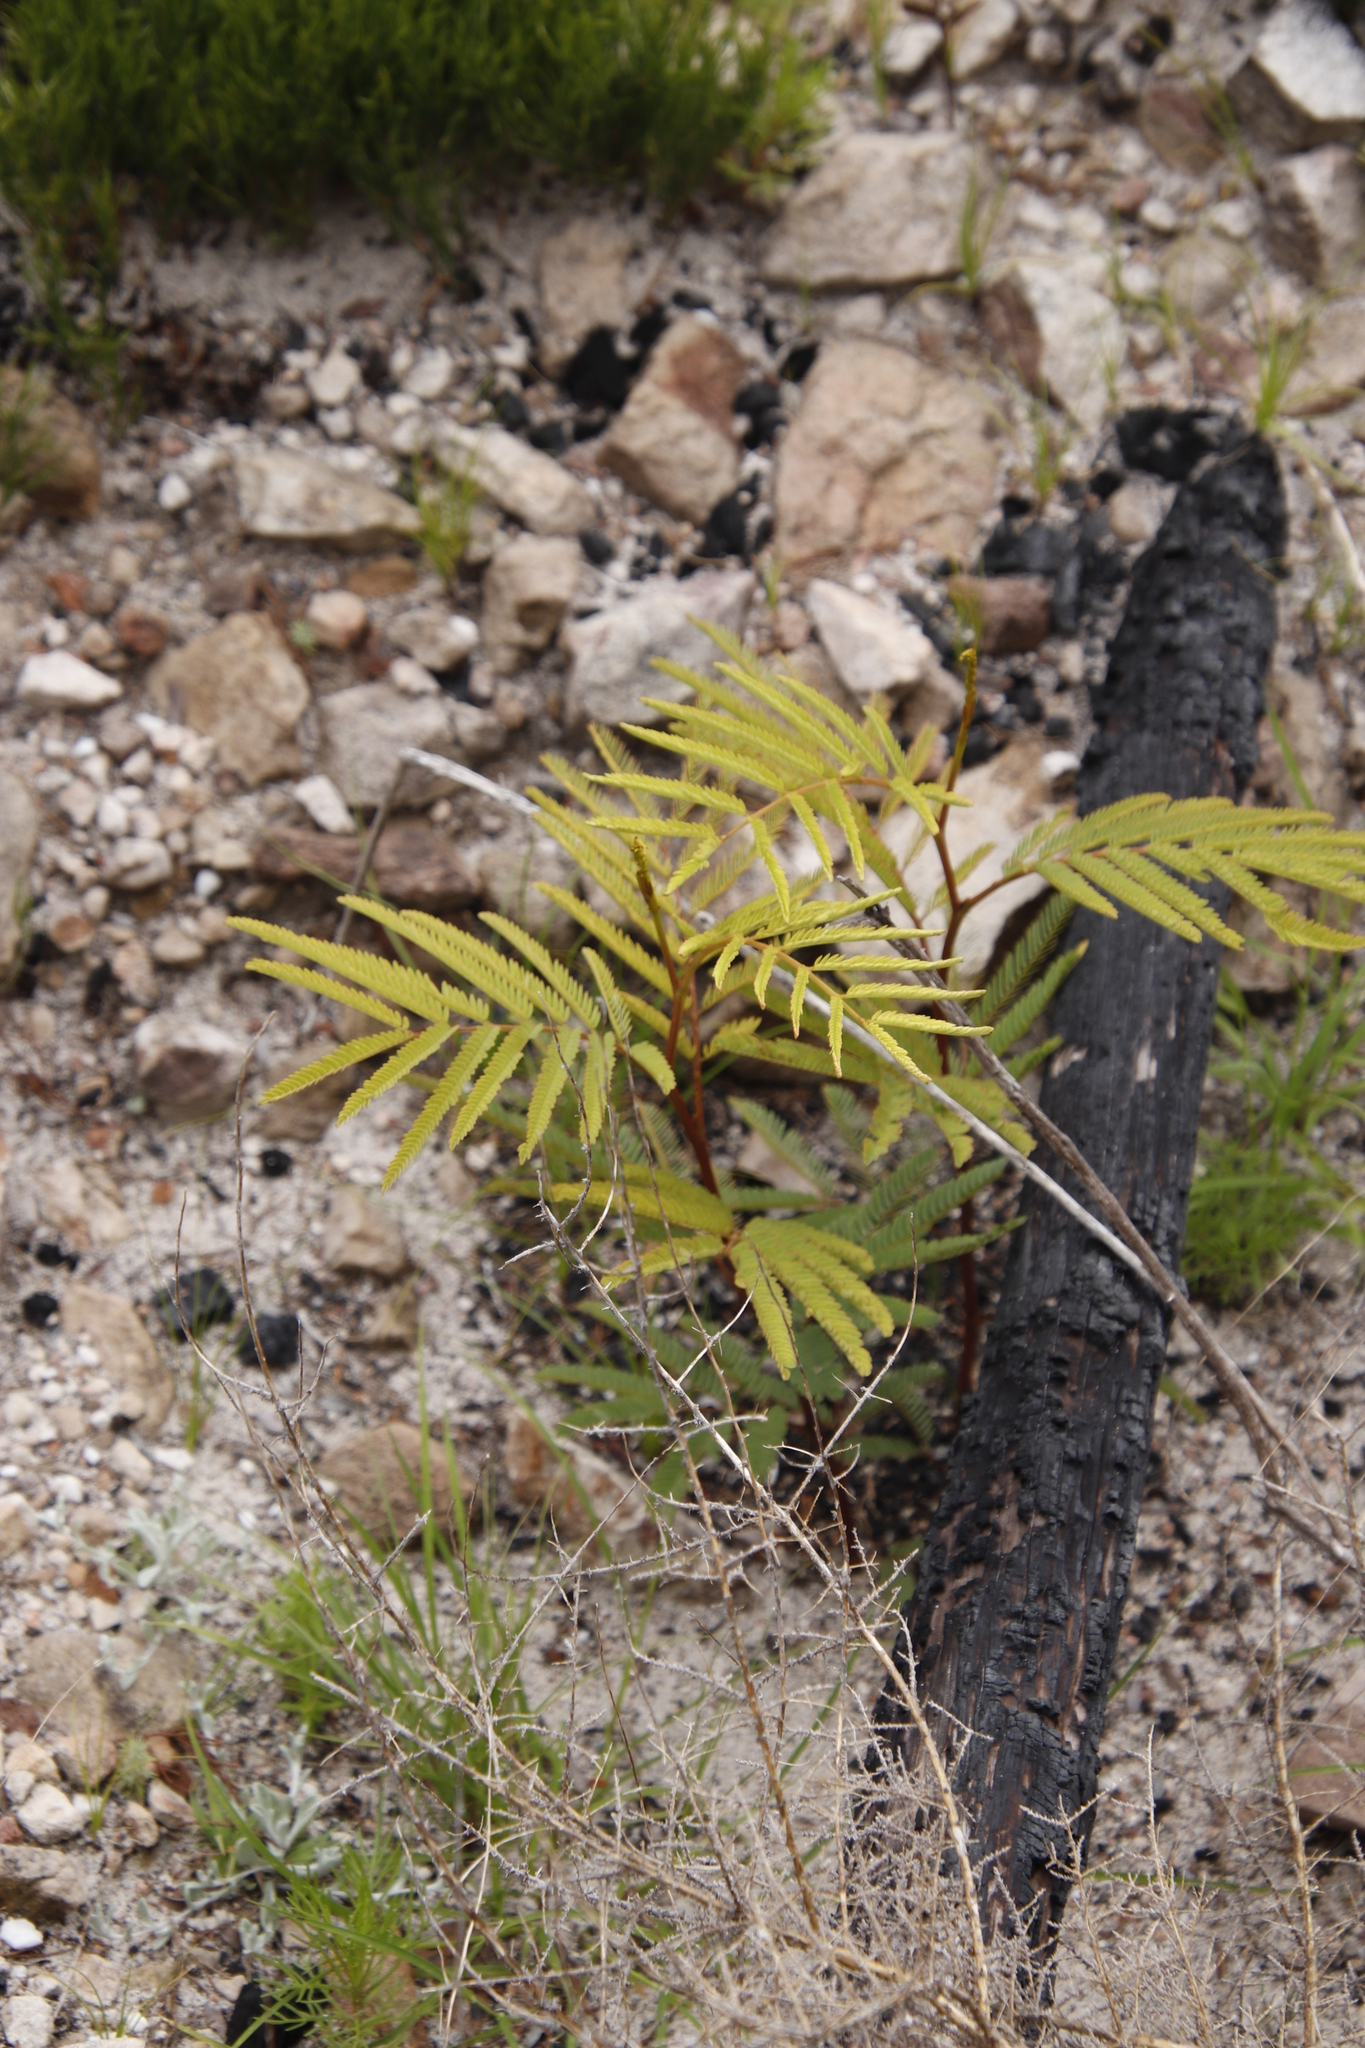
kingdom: Plantae
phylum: Tracheophyta
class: Magnoliopsida
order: Fabales
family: Fabaceae
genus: Paraserianthes
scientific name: Paraserianthes lophantha
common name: Plume albizia
